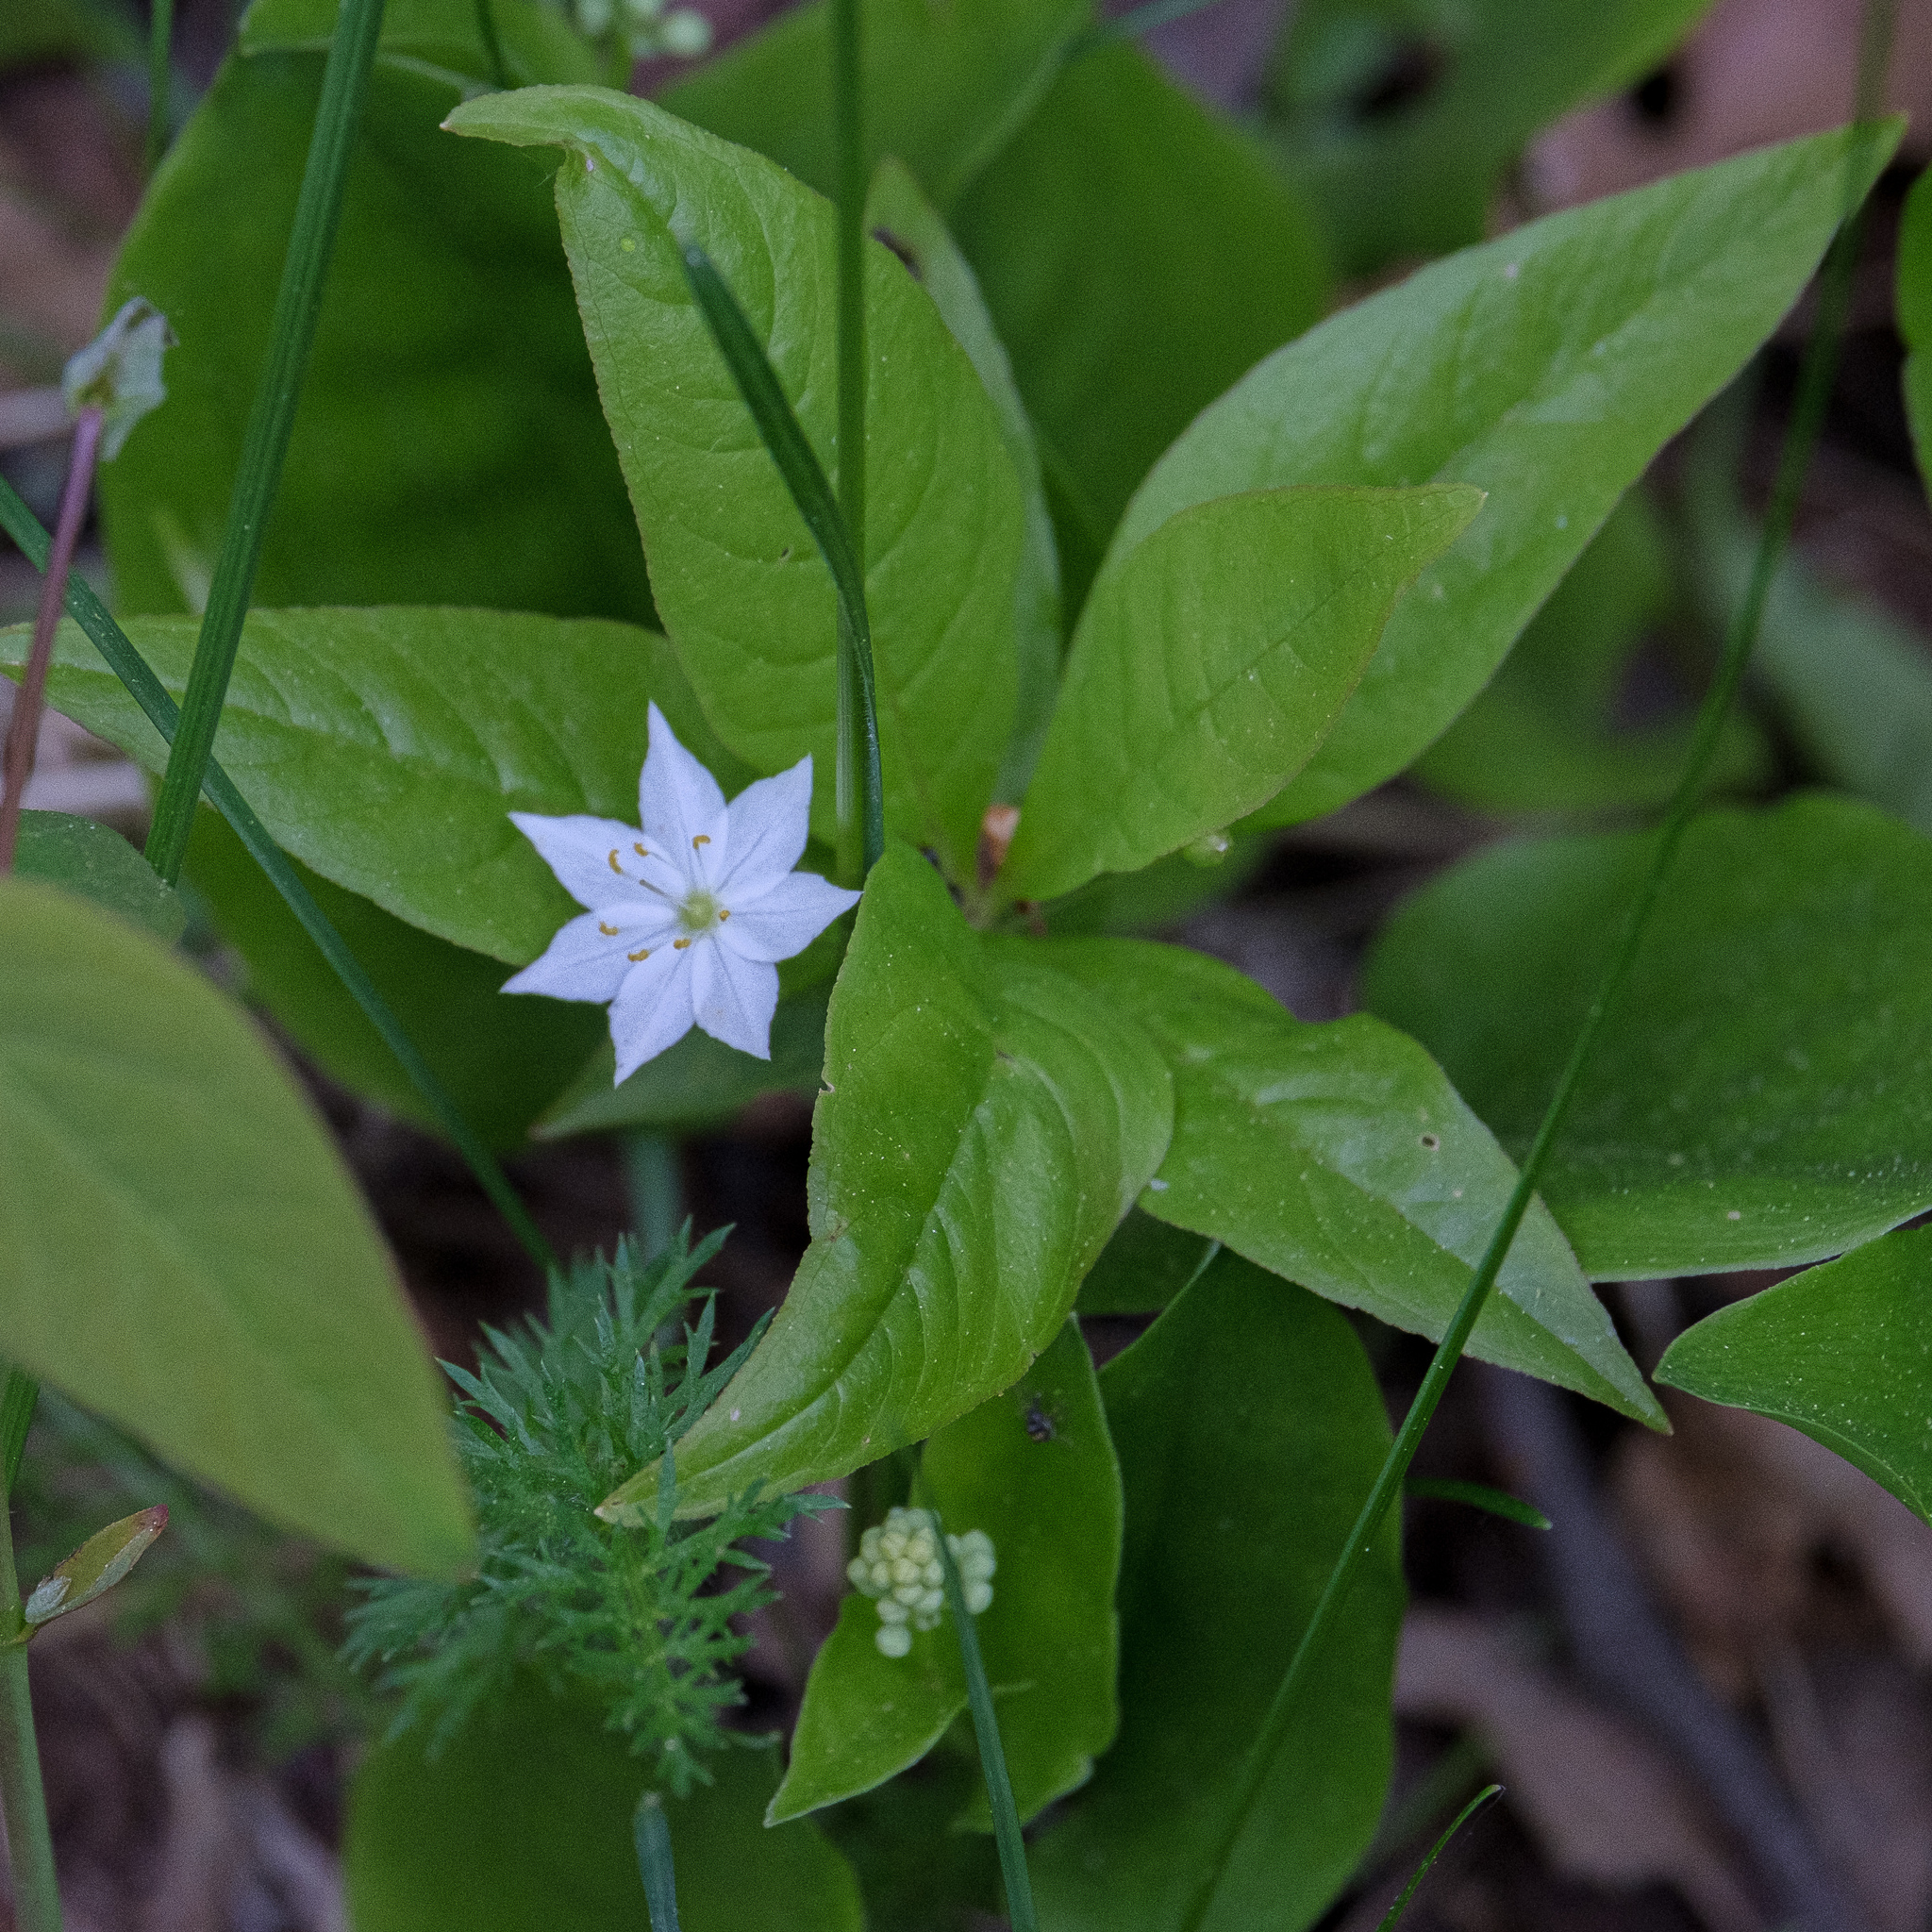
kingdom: Plantae
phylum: Tracheophyta
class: Magnoliopsida
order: Ericales
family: Primulaceae
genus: Lysimachia
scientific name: Lysimachia borealis
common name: American starflower
